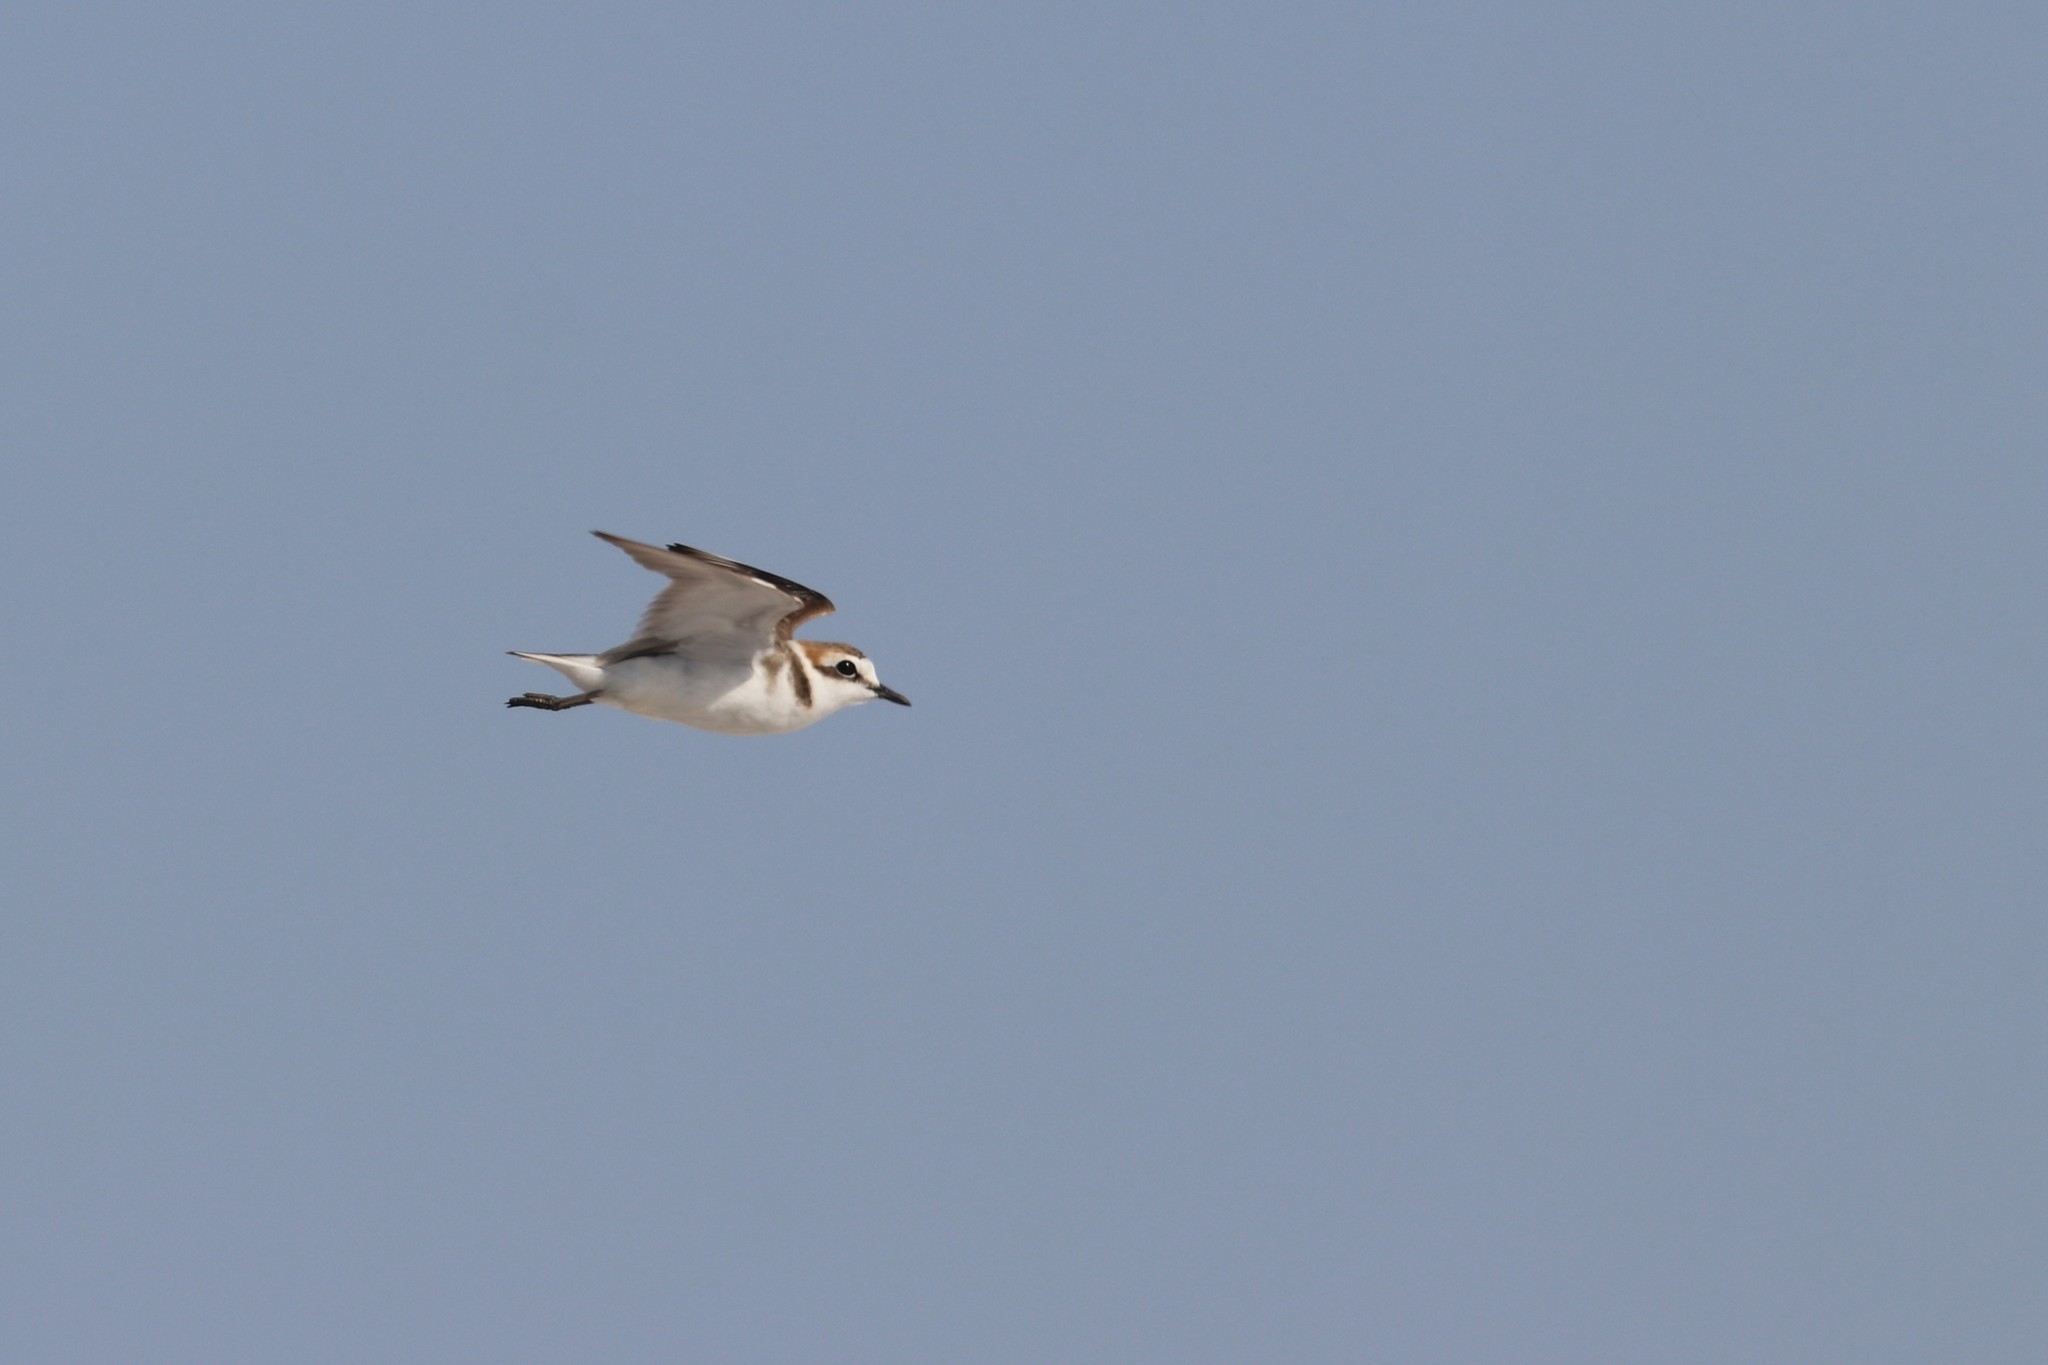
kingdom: Animalia
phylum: Chordata
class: Aves
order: Charadriiformes
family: Charadriidae
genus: Charadrius
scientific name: Charadrius alexandrinus
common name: Kentish plover
